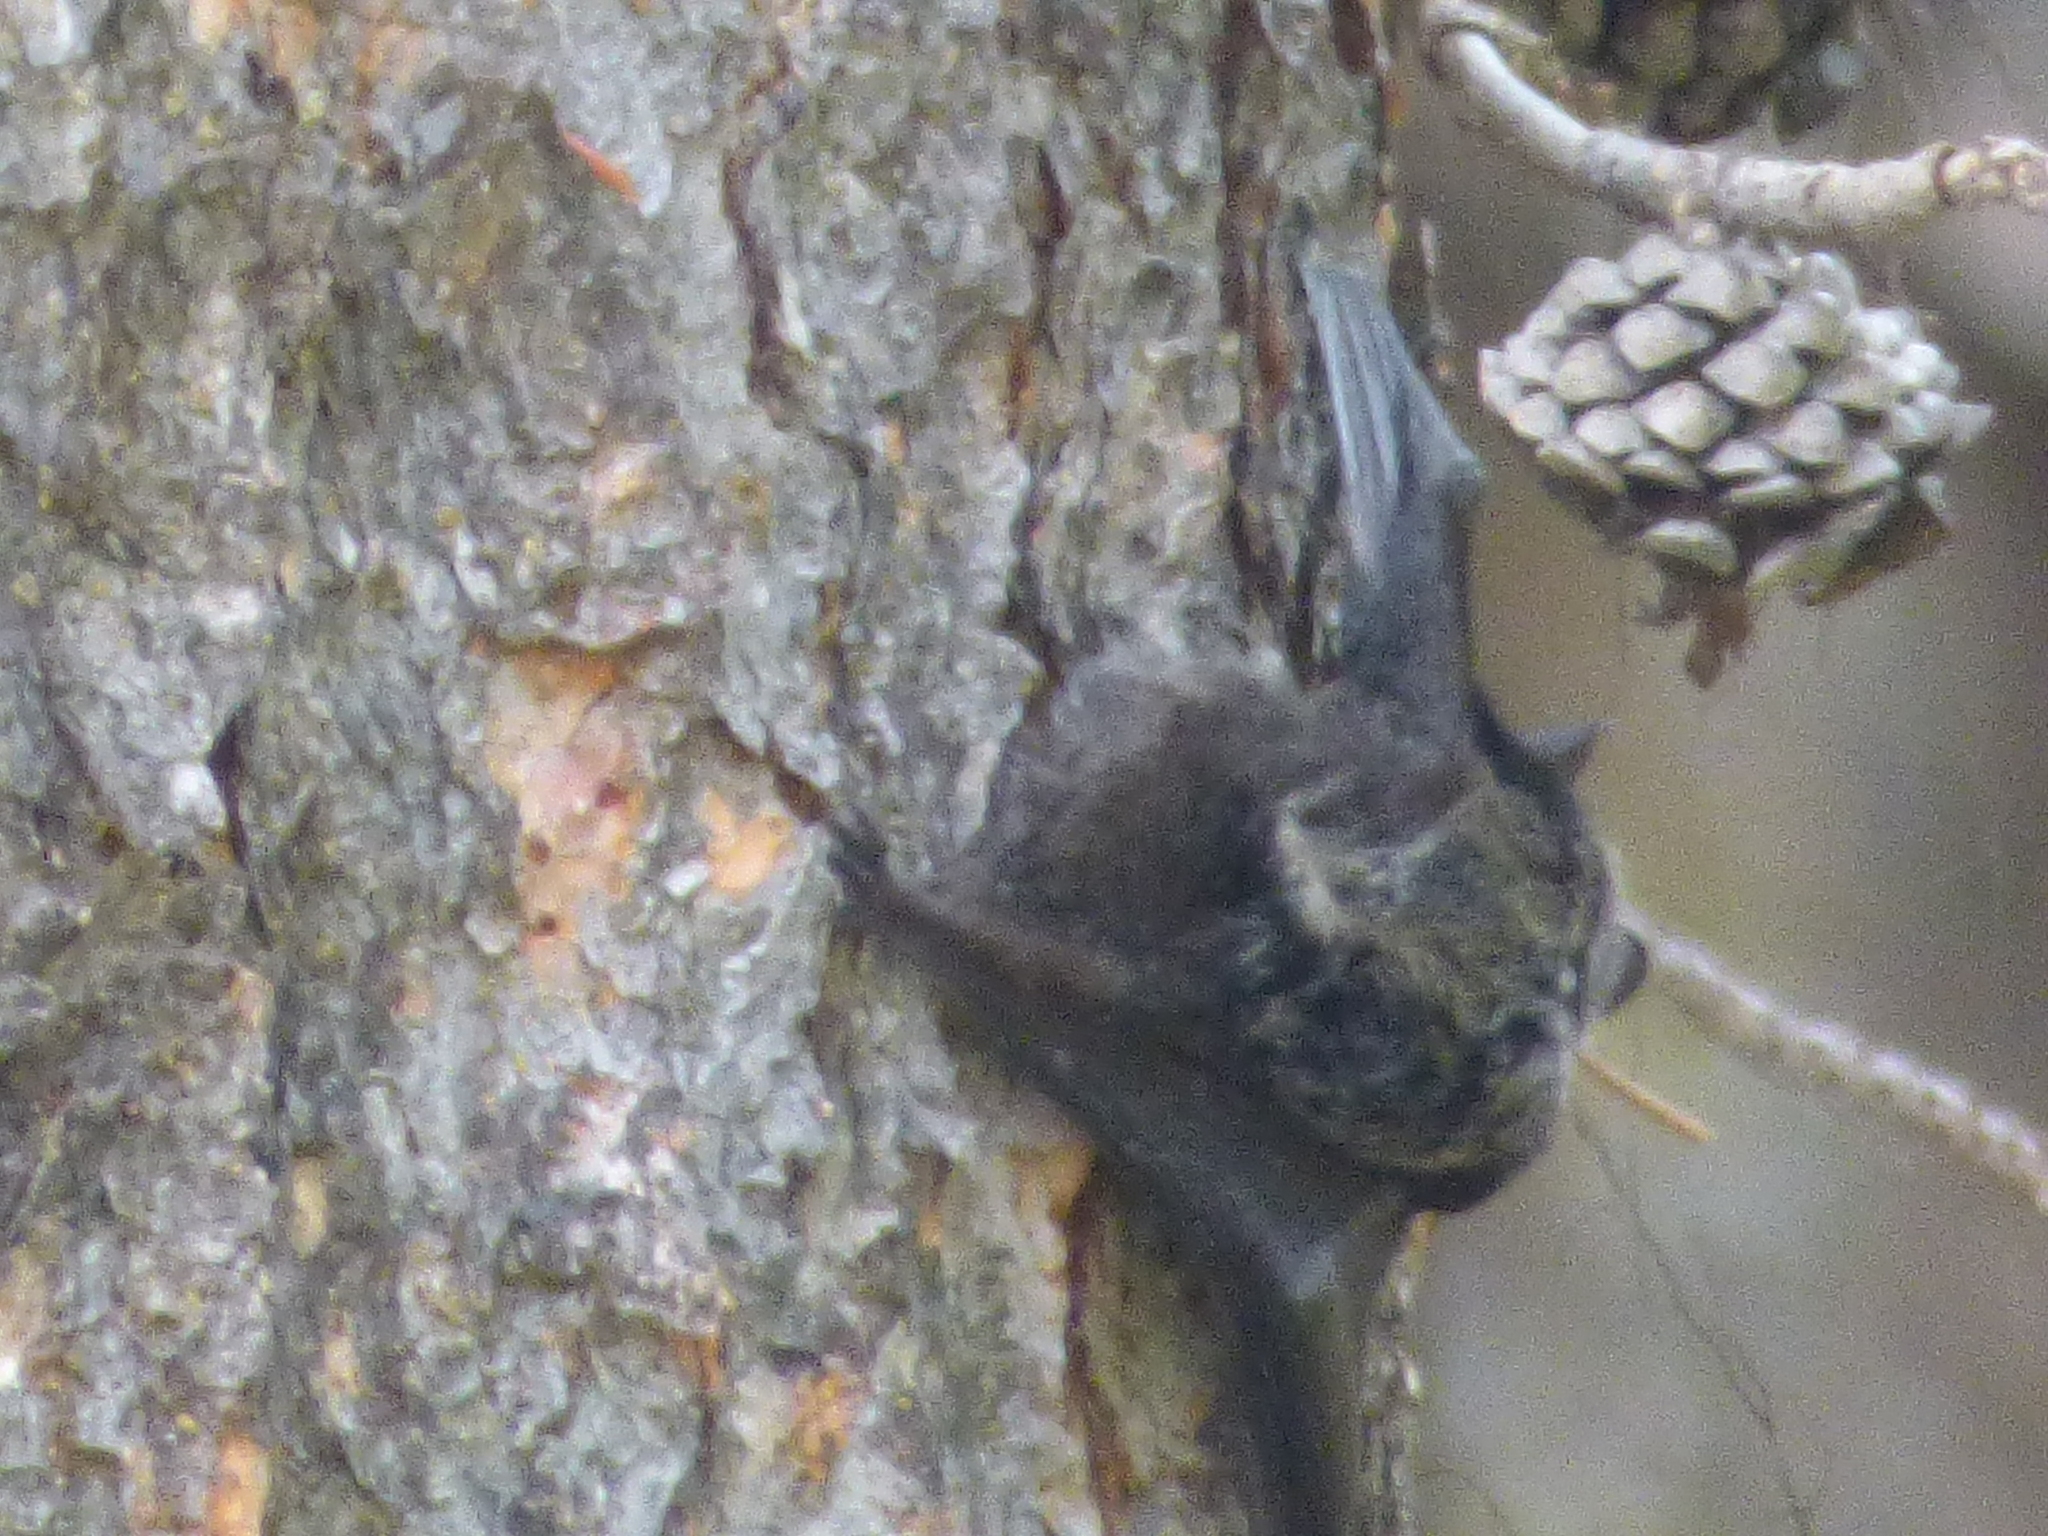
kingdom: Animalia
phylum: Chordata
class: Mammalia
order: Chiroptera
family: Vespertilionidae
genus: Lasionycteris
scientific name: Lasionycteris noctivagans
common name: Silver-haired bat
